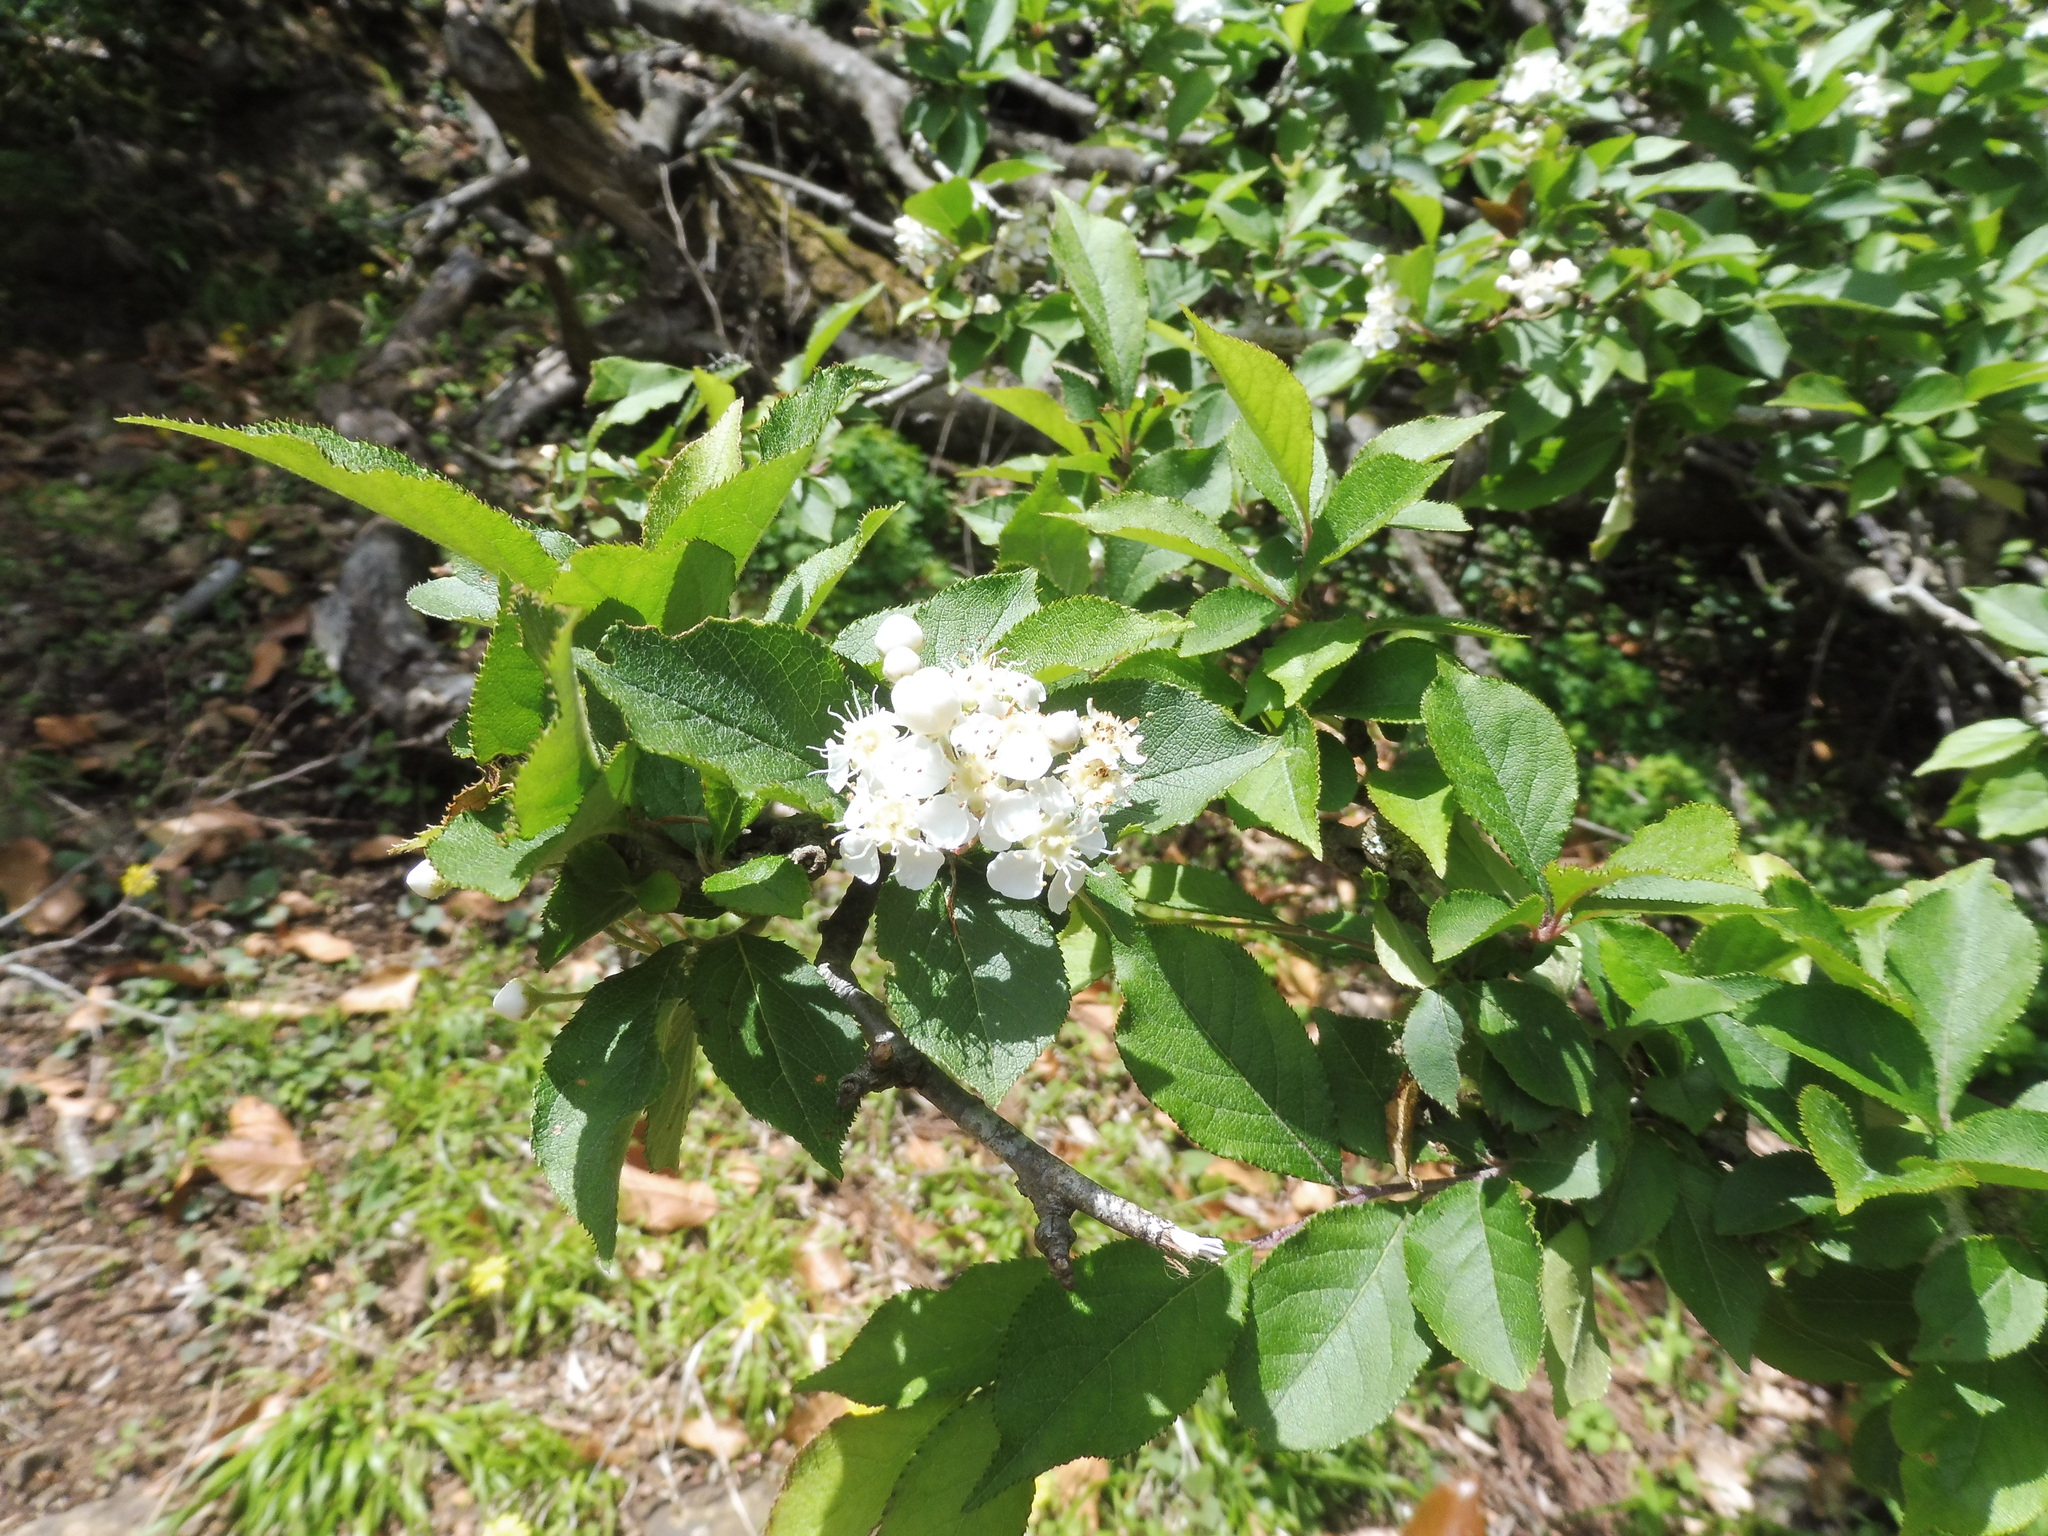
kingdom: Plantae
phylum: Tracheophyta
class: Magnoliopsida
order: Rosales
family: Rosaceae
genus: Pourthiaea
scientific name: Pourthiaea villosa
